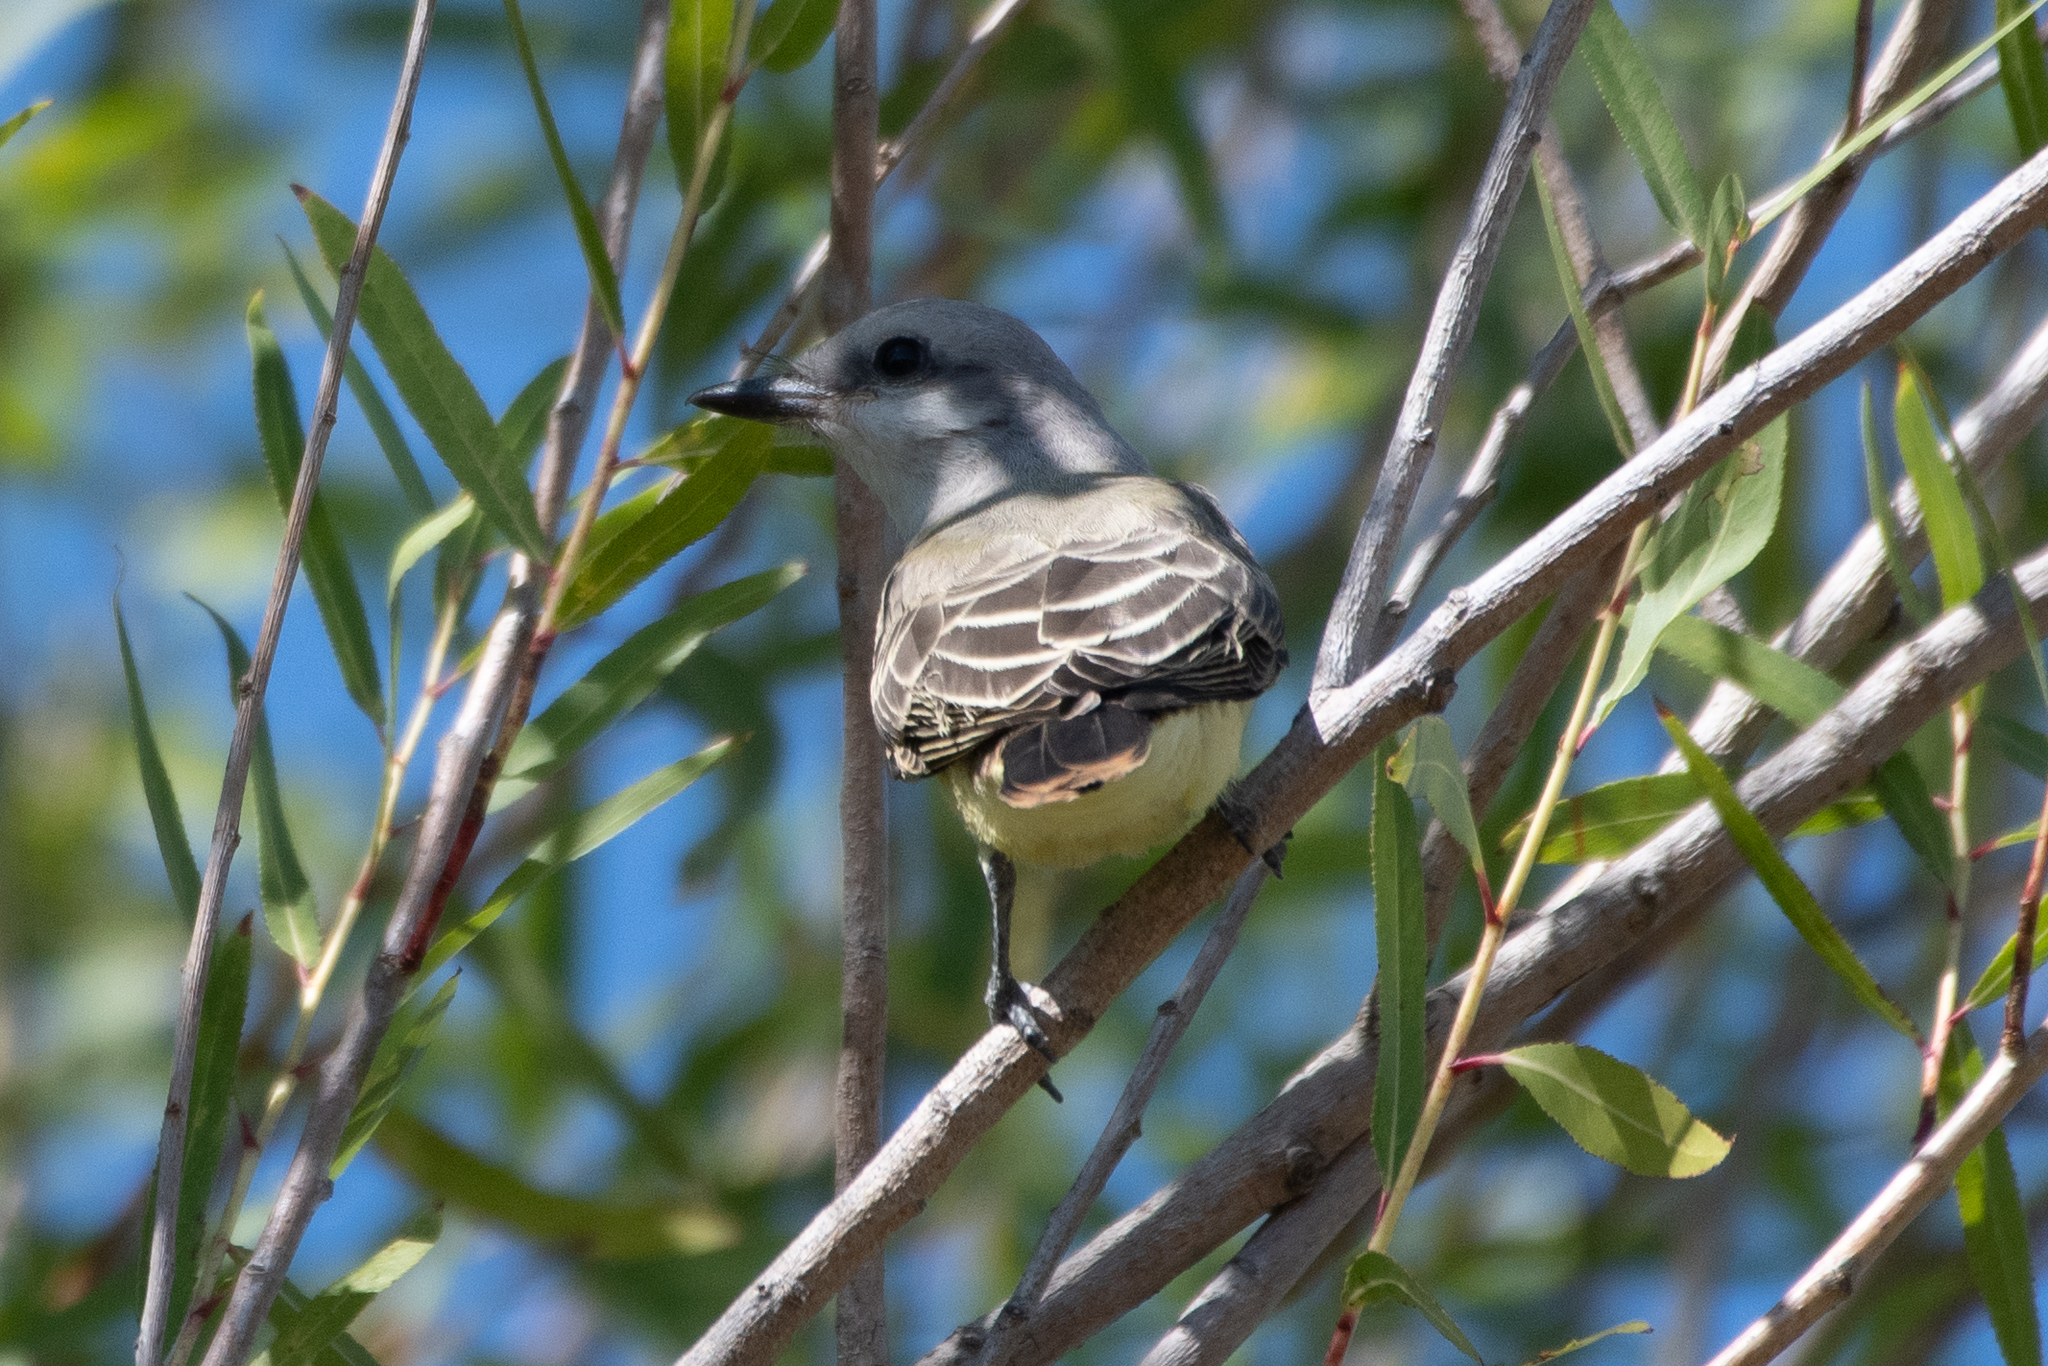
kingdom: Animalia
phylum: Chordata
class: Aves
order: Passeriformes
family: Tyrannidae
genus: Tyrannus
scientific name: Tyrannus verticalis
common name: Western kingbird
